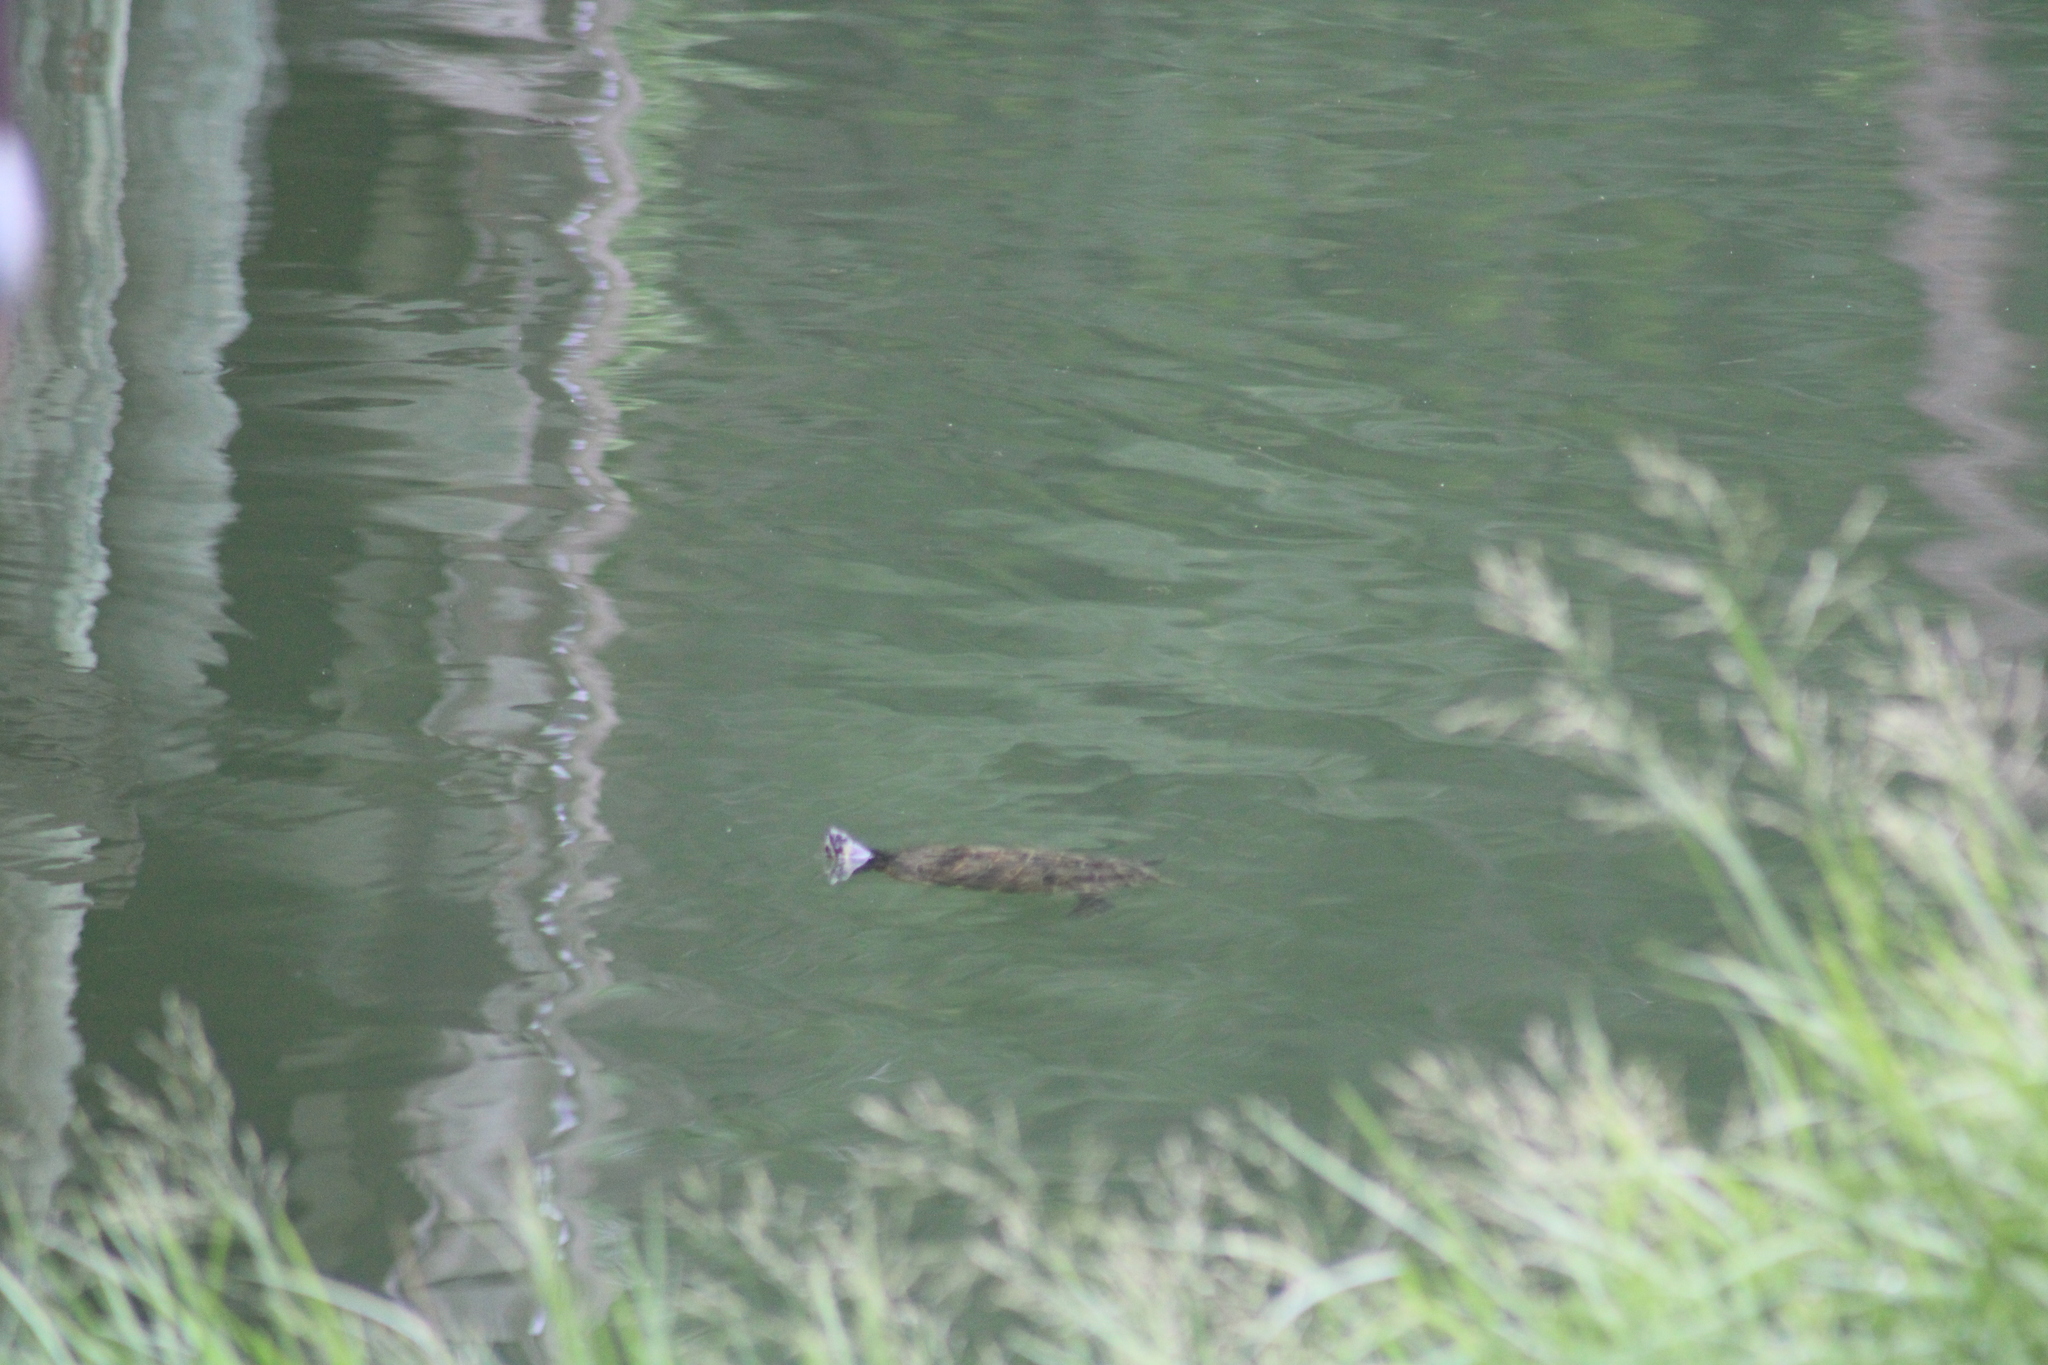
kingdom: Animalia
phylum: Chordata
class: Testudines
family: Emydidae
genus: Trachemys
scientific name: Trachemys scripta
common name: Slider
